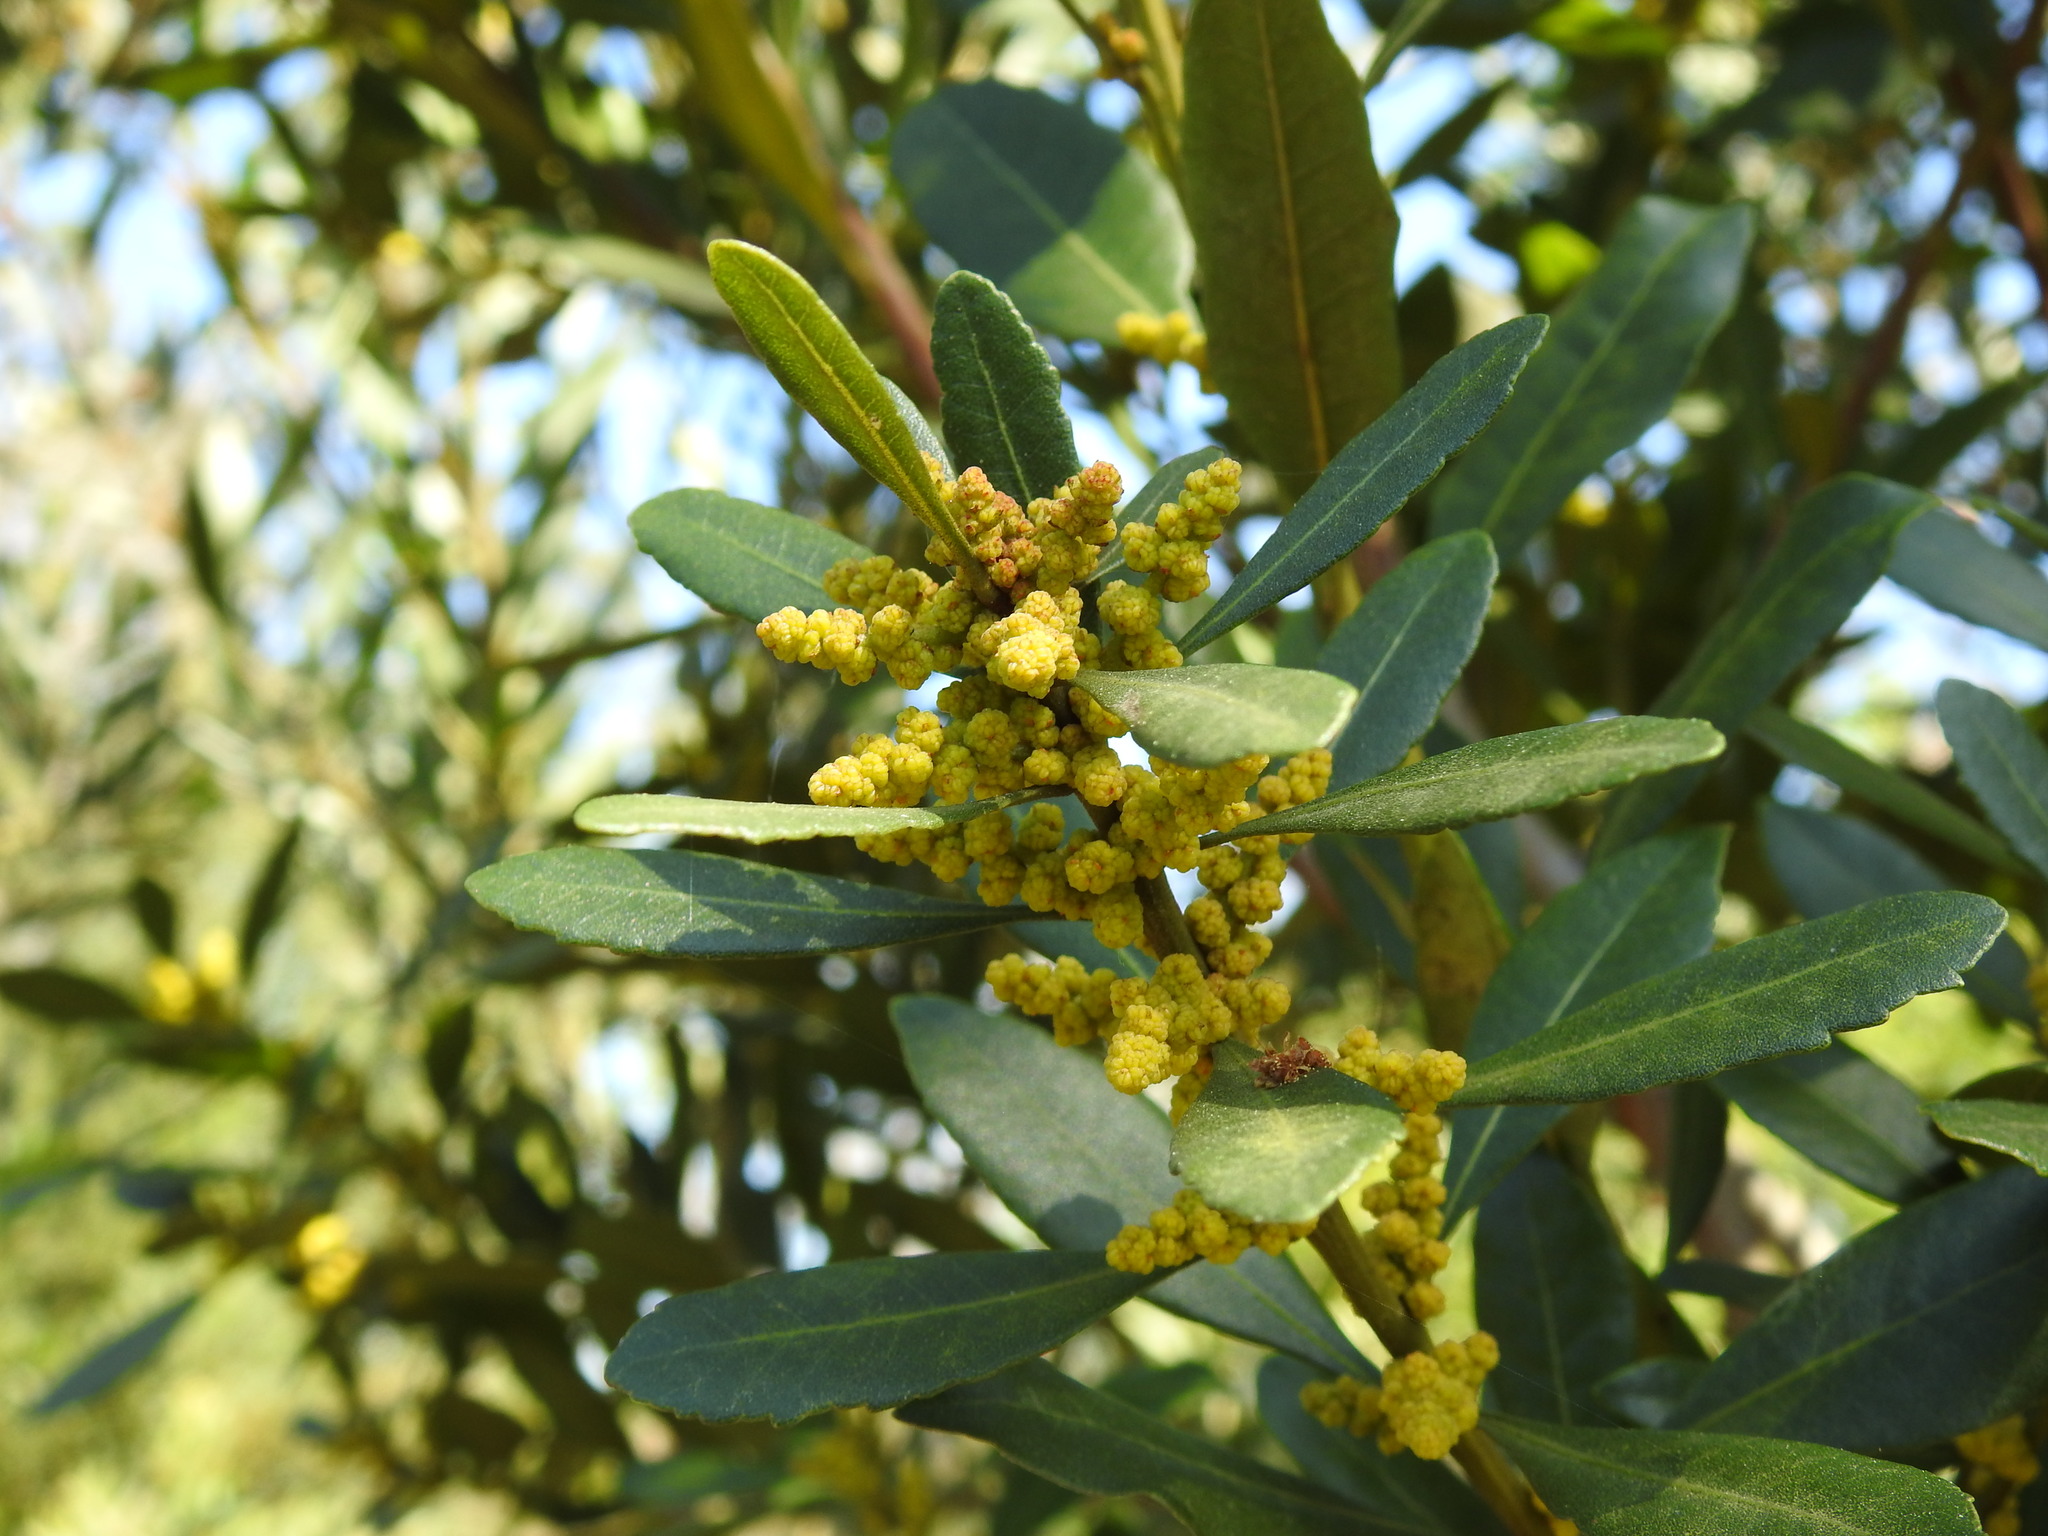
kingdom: Plantae
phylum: Tracheophyta
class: Magnoliopsida
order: Fagales
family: Myricaceae
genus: Morella
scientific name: Morella faya
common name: Firetree
